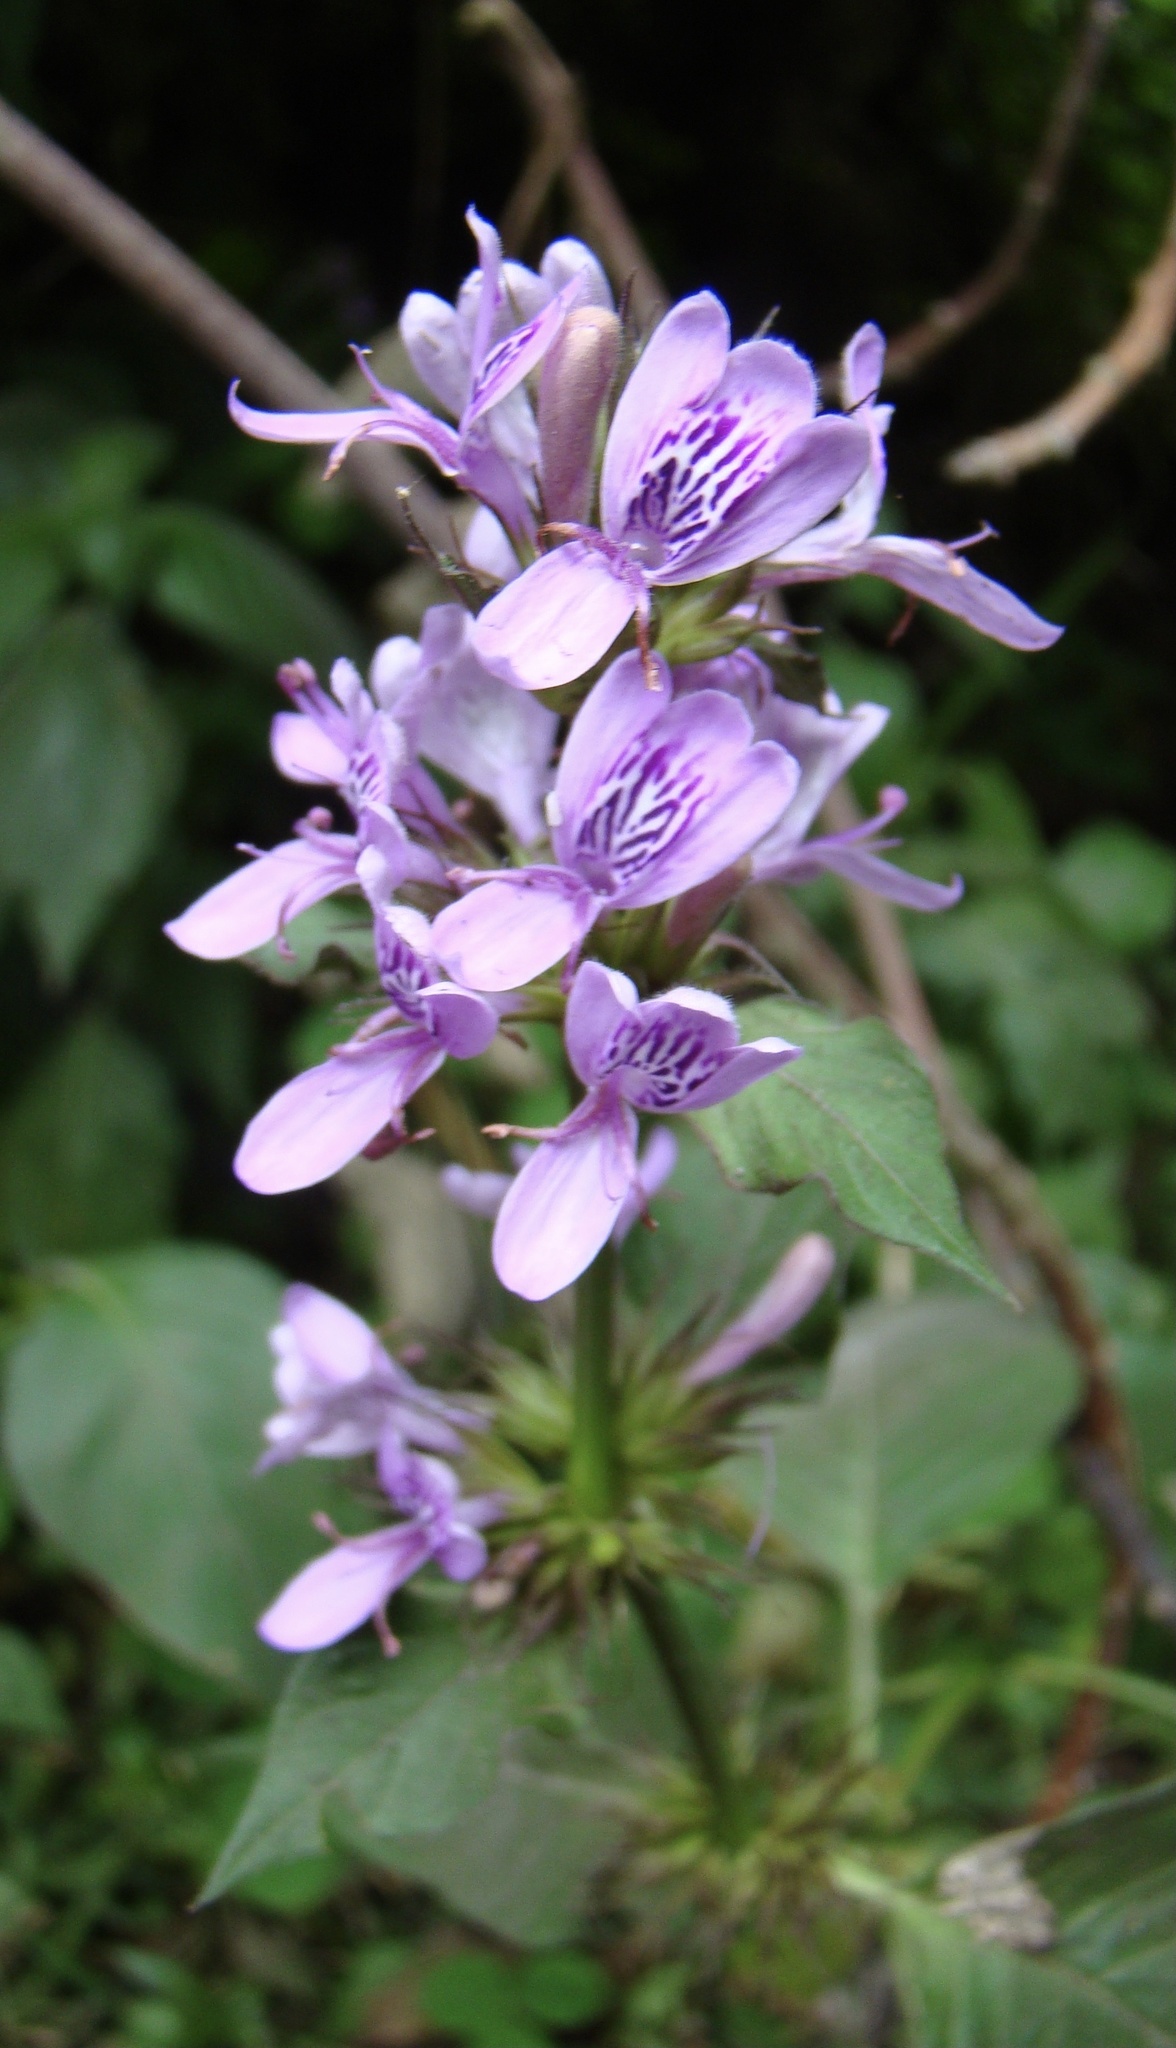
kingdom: Plantae
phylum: Tracheophyta
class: Magnoliopsida
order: Lamiales
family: Acanthaceae
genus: Hypoestes
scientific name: Hypoestes aristata
